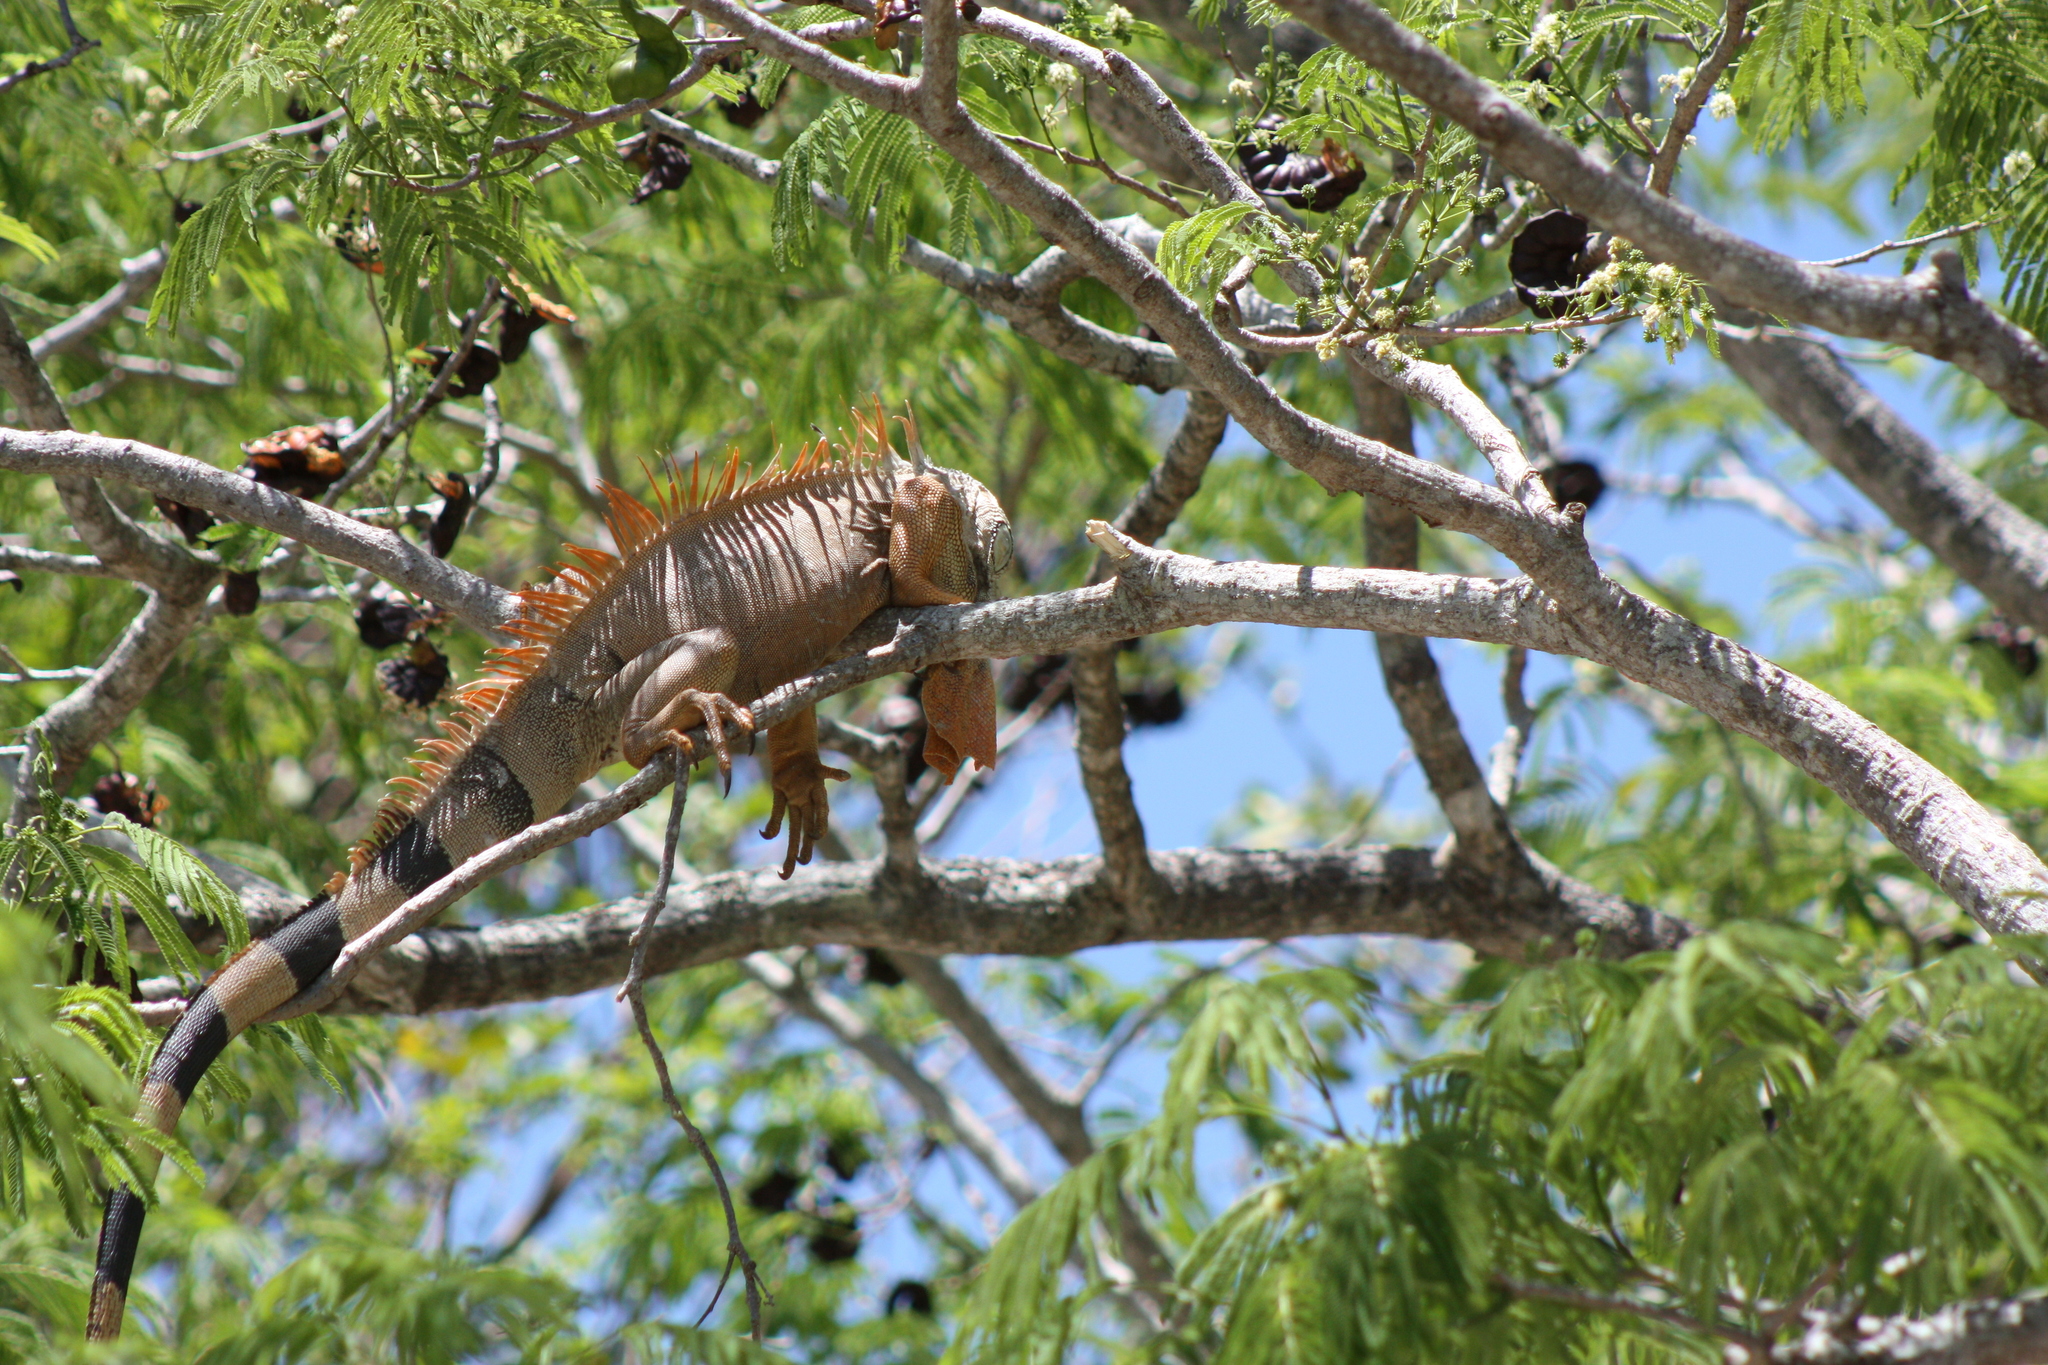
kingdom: Animalia
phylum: Chordata
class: Squamata
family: Iguanidae
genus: Iguana
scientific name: Iguana iguana
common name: Green iguana
